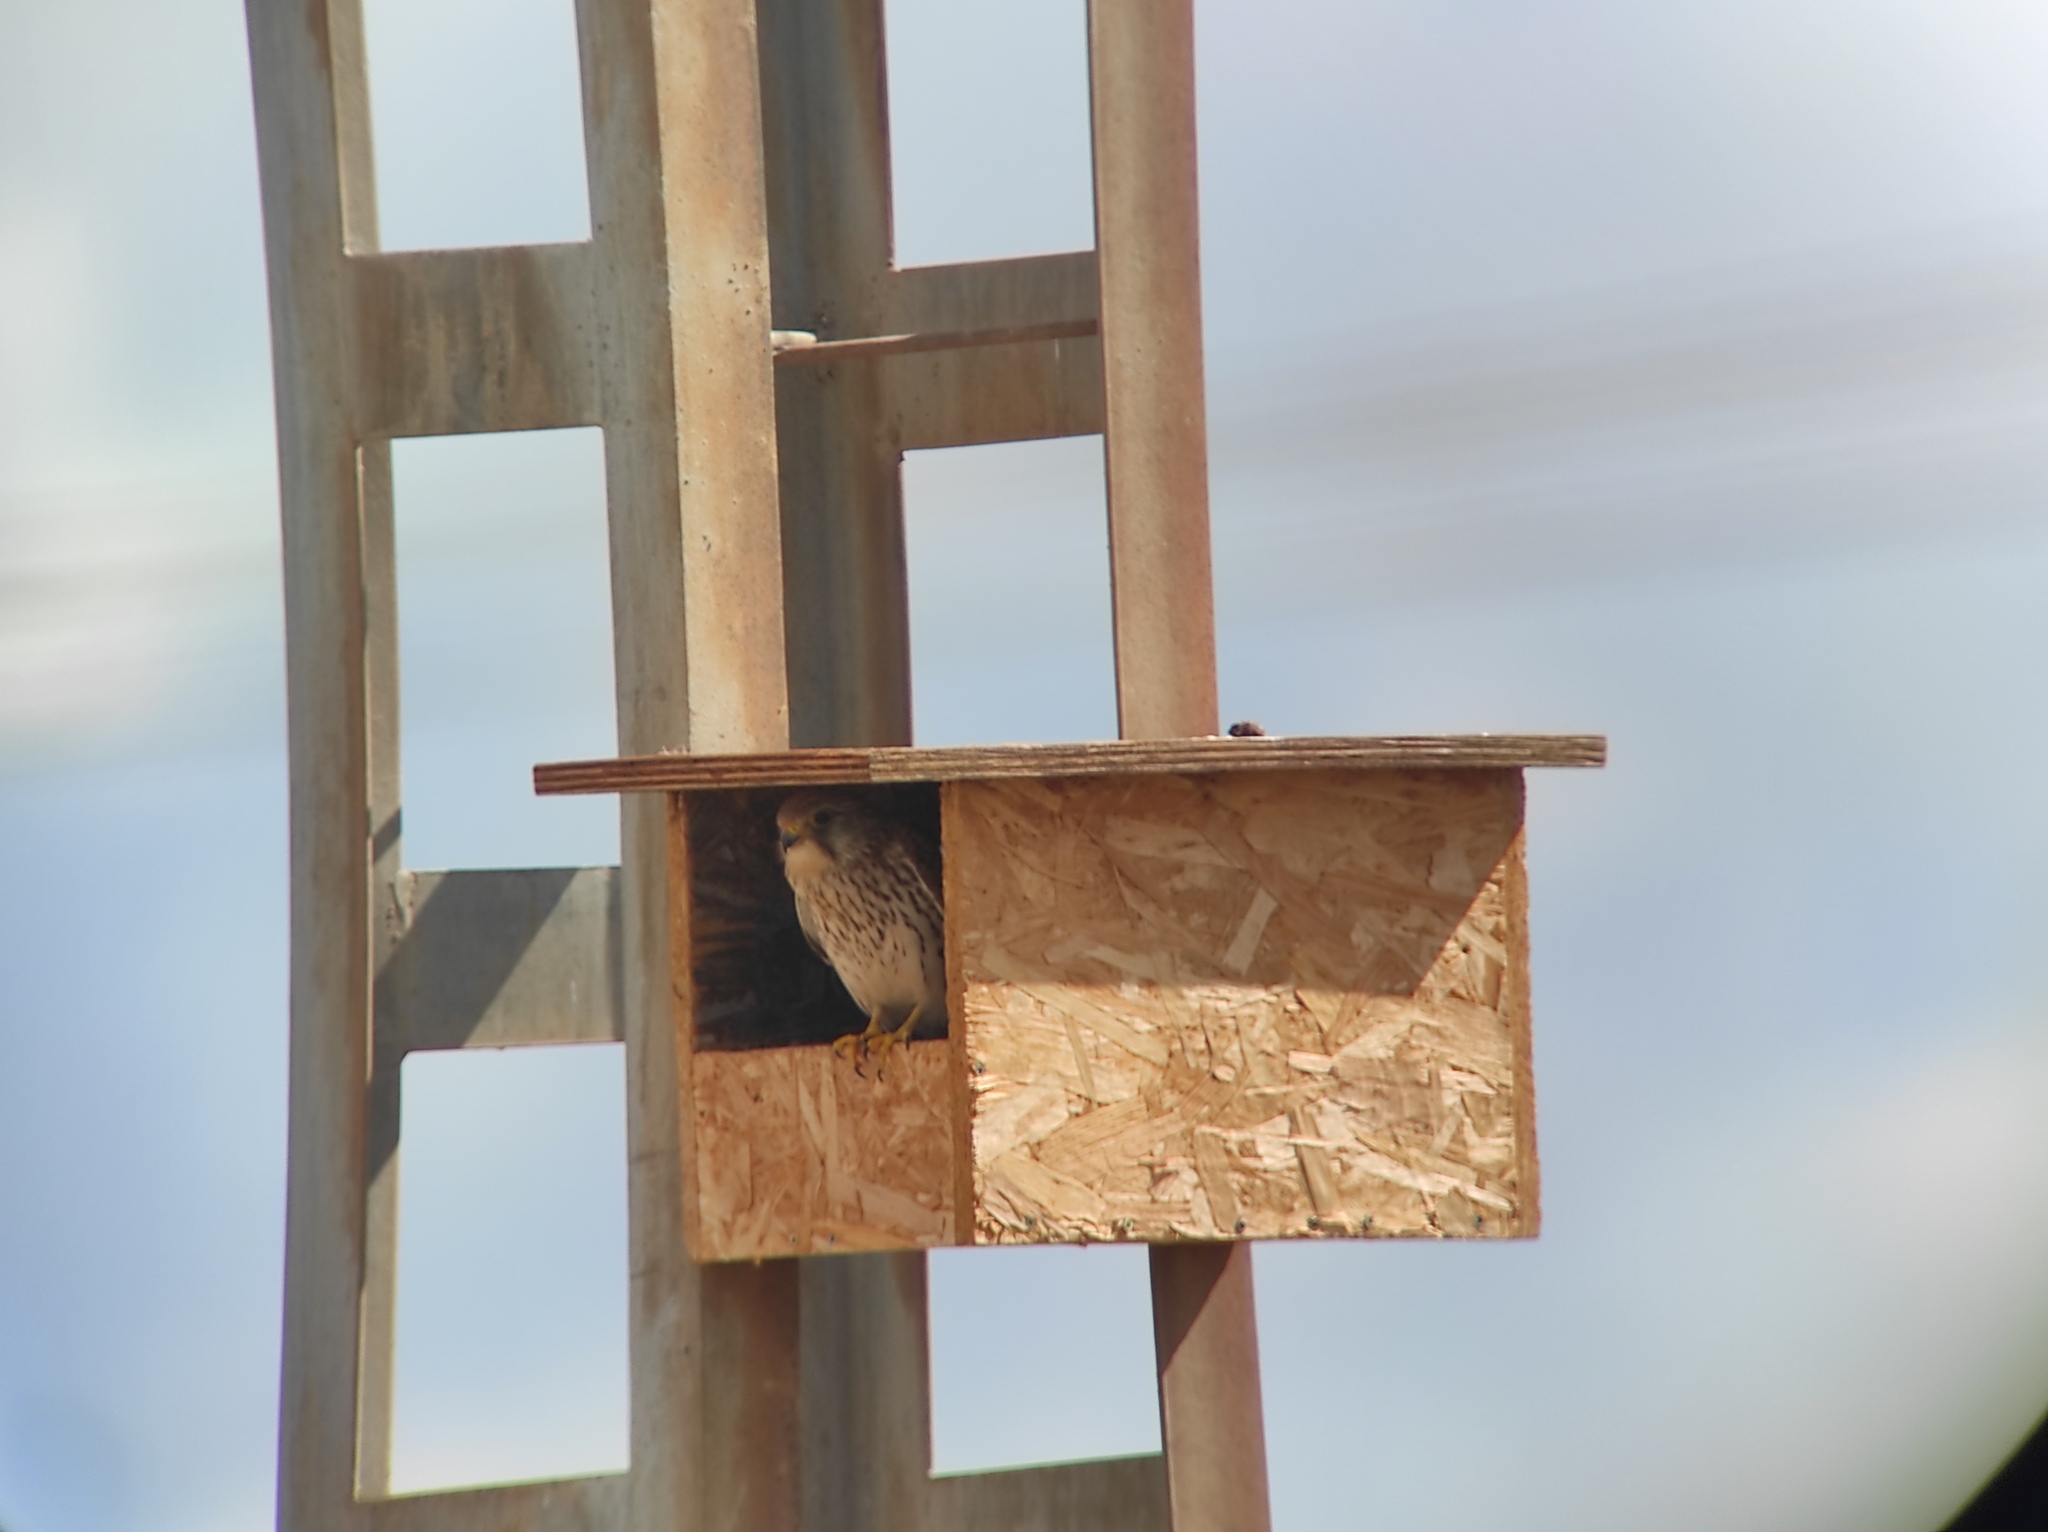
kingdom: Animalia
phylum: Chordata
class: Aves
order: Falconiformes
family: Falconidae
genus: Falco
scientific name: Falco tinnunculus
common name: Common kestrel
